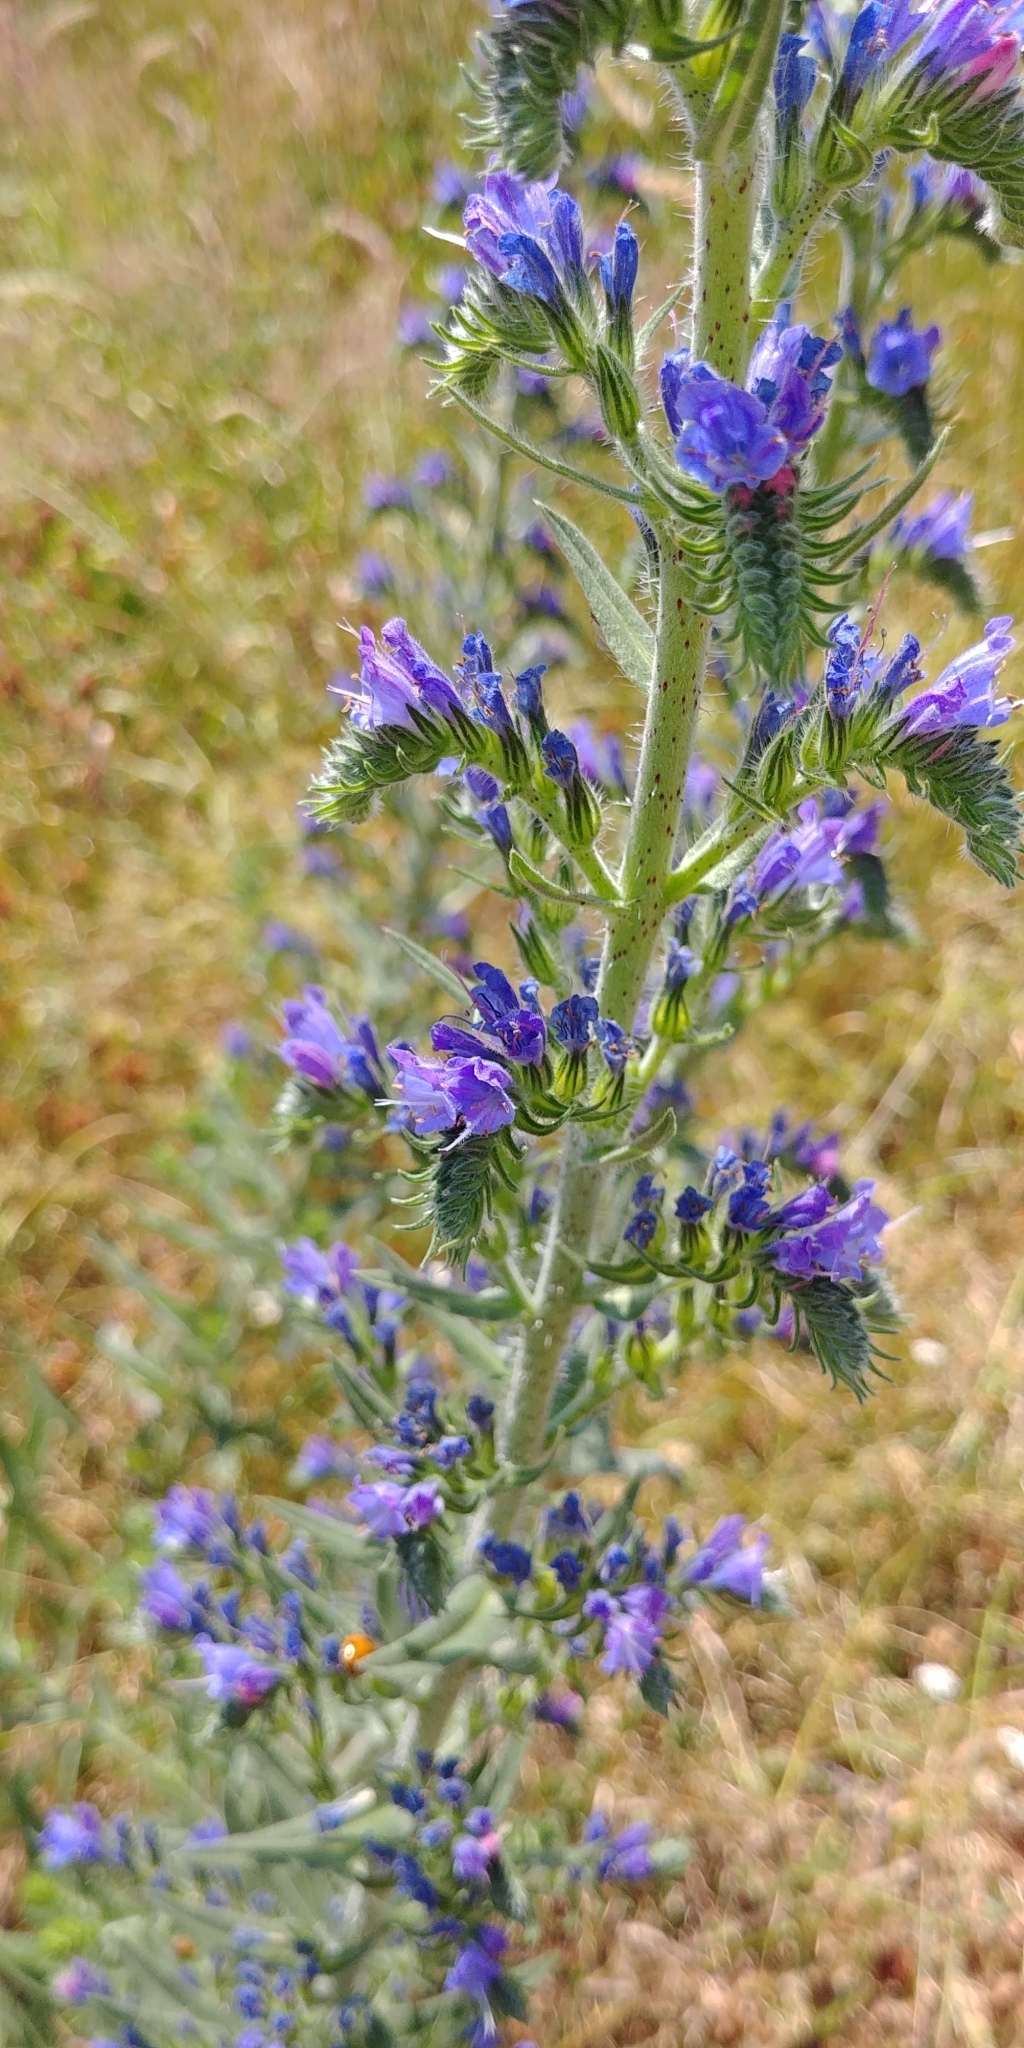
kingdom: Plantae
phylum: Tracheophyta
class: Magnoliopsida
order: Boraginales
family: Boraginaceae
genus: Echium
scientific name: Echium vulgare
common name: Common viper's bugloss
